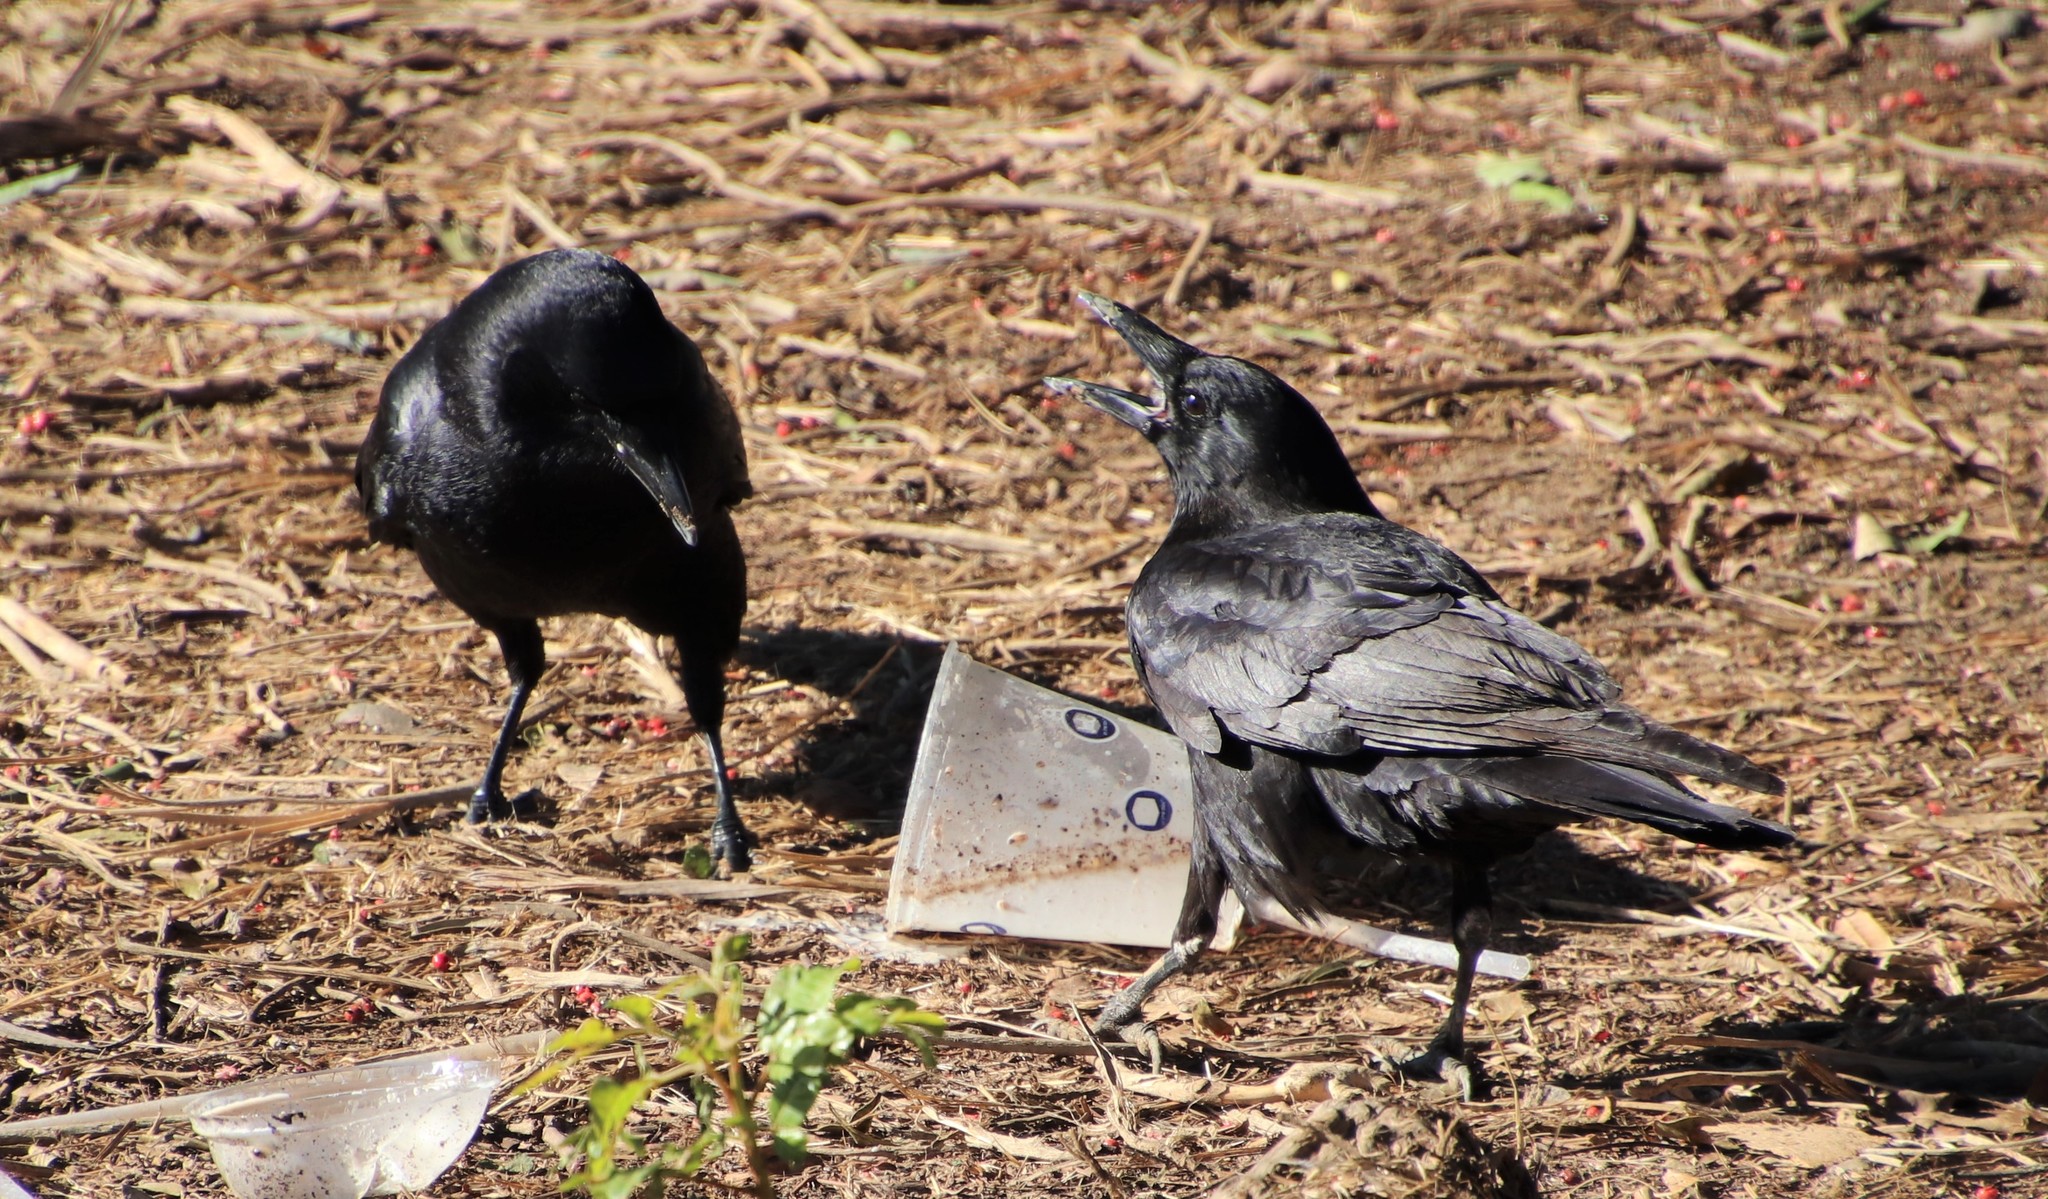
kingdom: Animalia
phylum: Chordata
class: Aves
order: Passeriformes
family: Corvidae
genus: Corvus
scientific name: Corvus brachyrhynchos
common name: American crow
